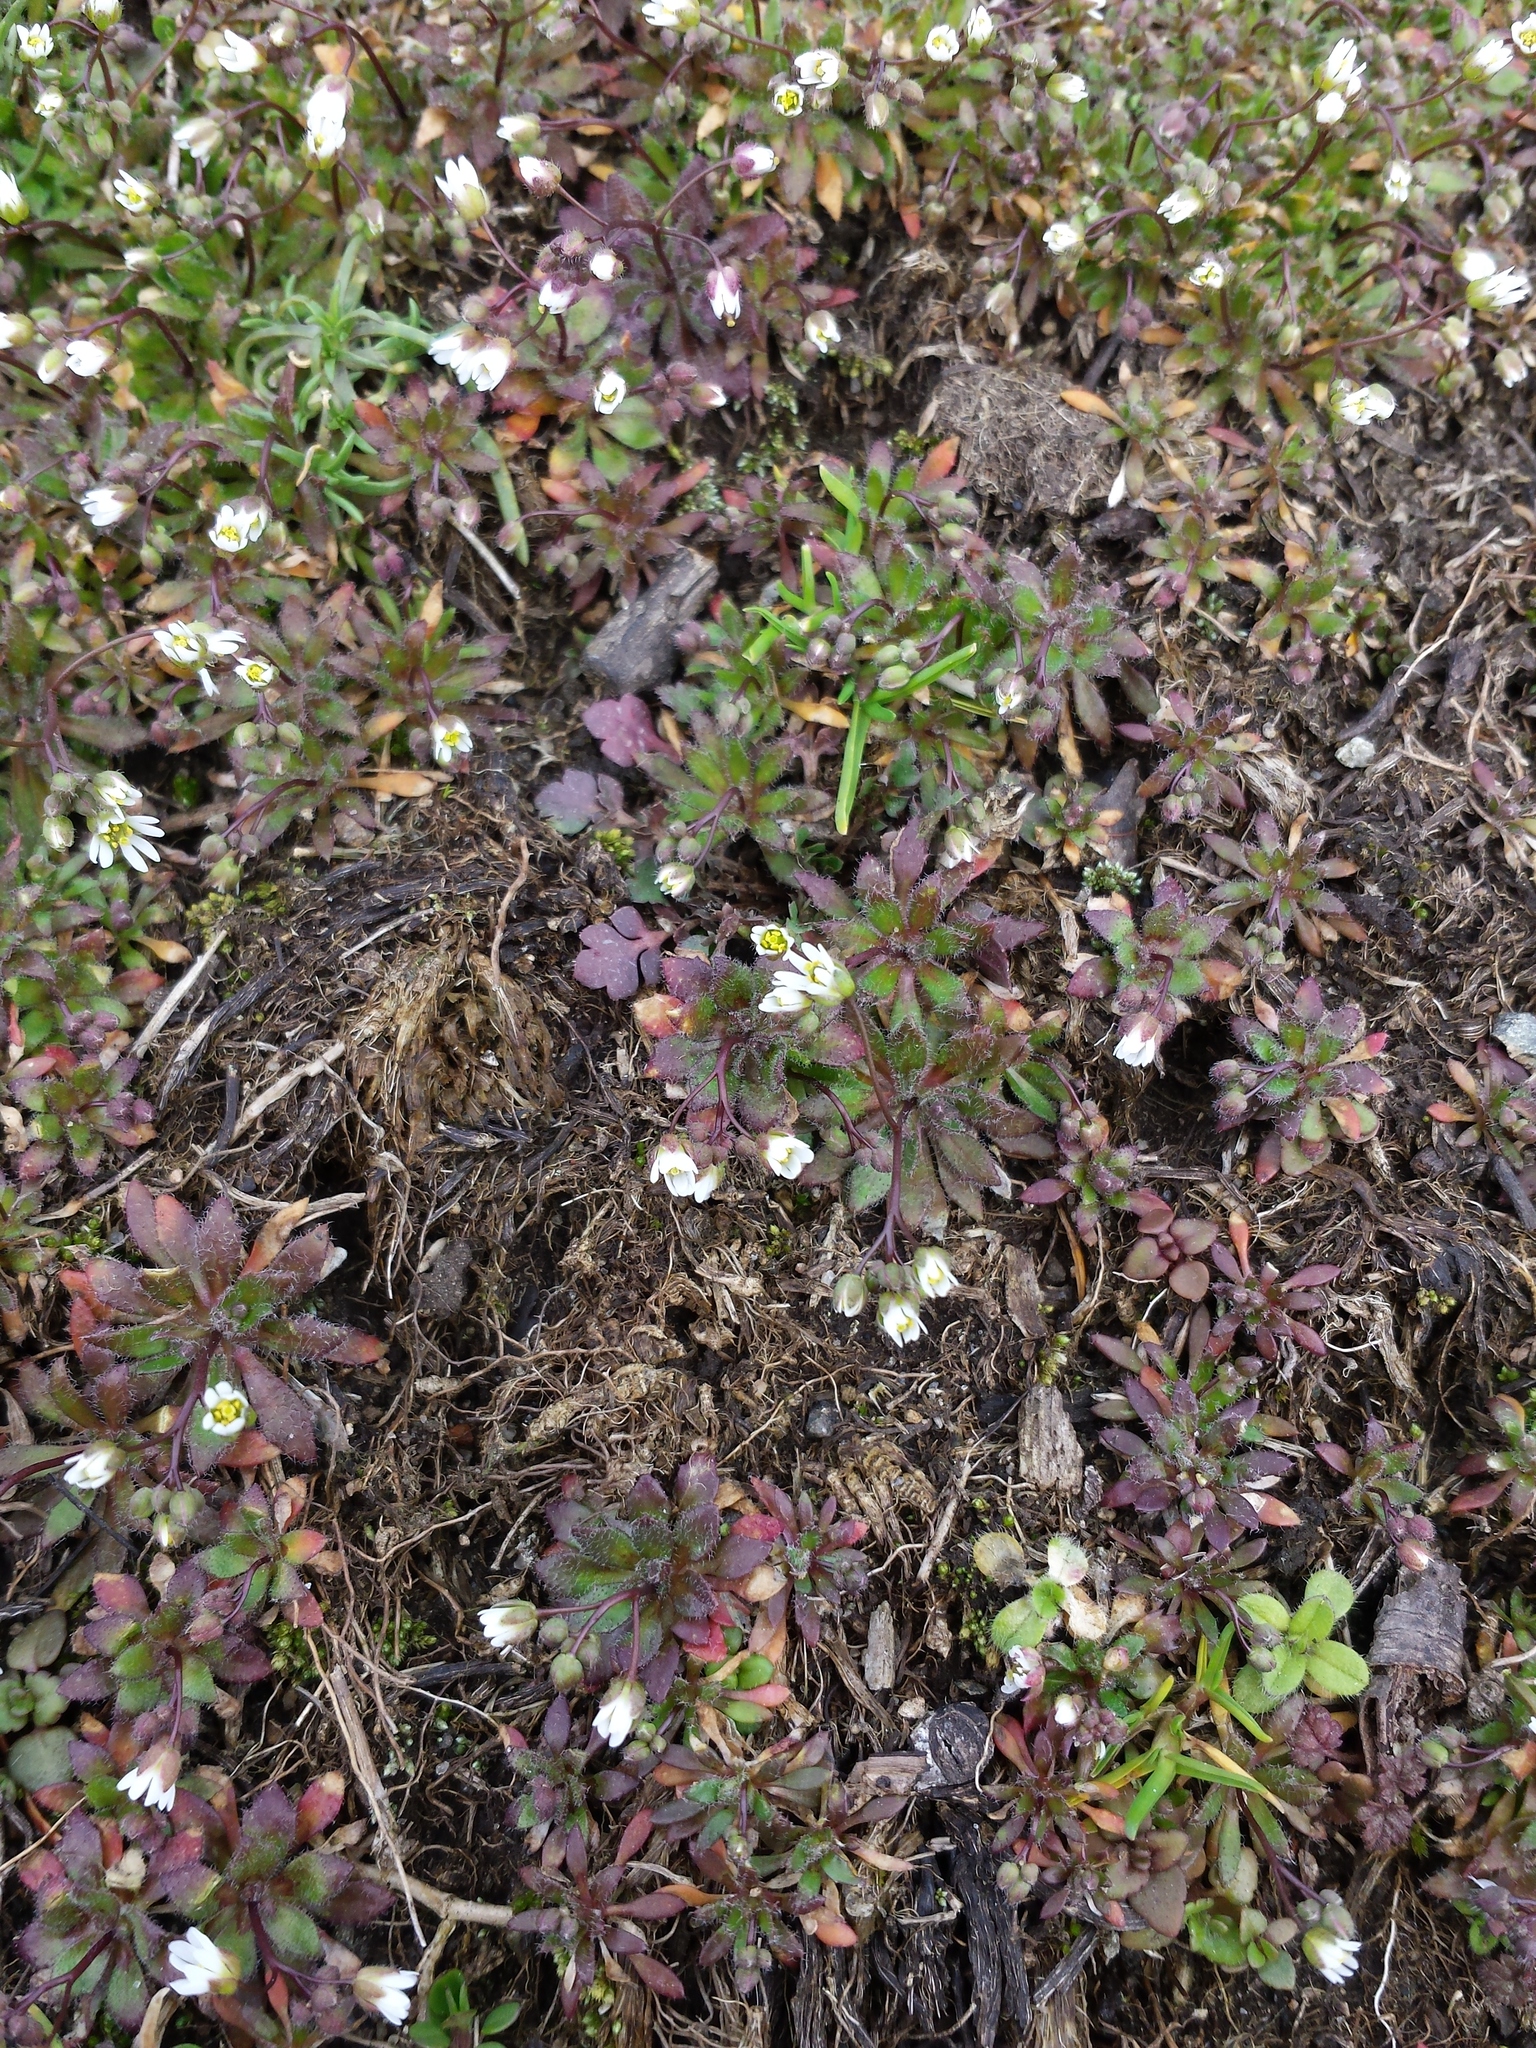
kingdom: Plantae
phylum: Tracheophyta
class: Magnoliopsida
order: Brassicales
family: Brassicaceae
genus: Draba
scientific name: Draba verna
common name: Spring draba
